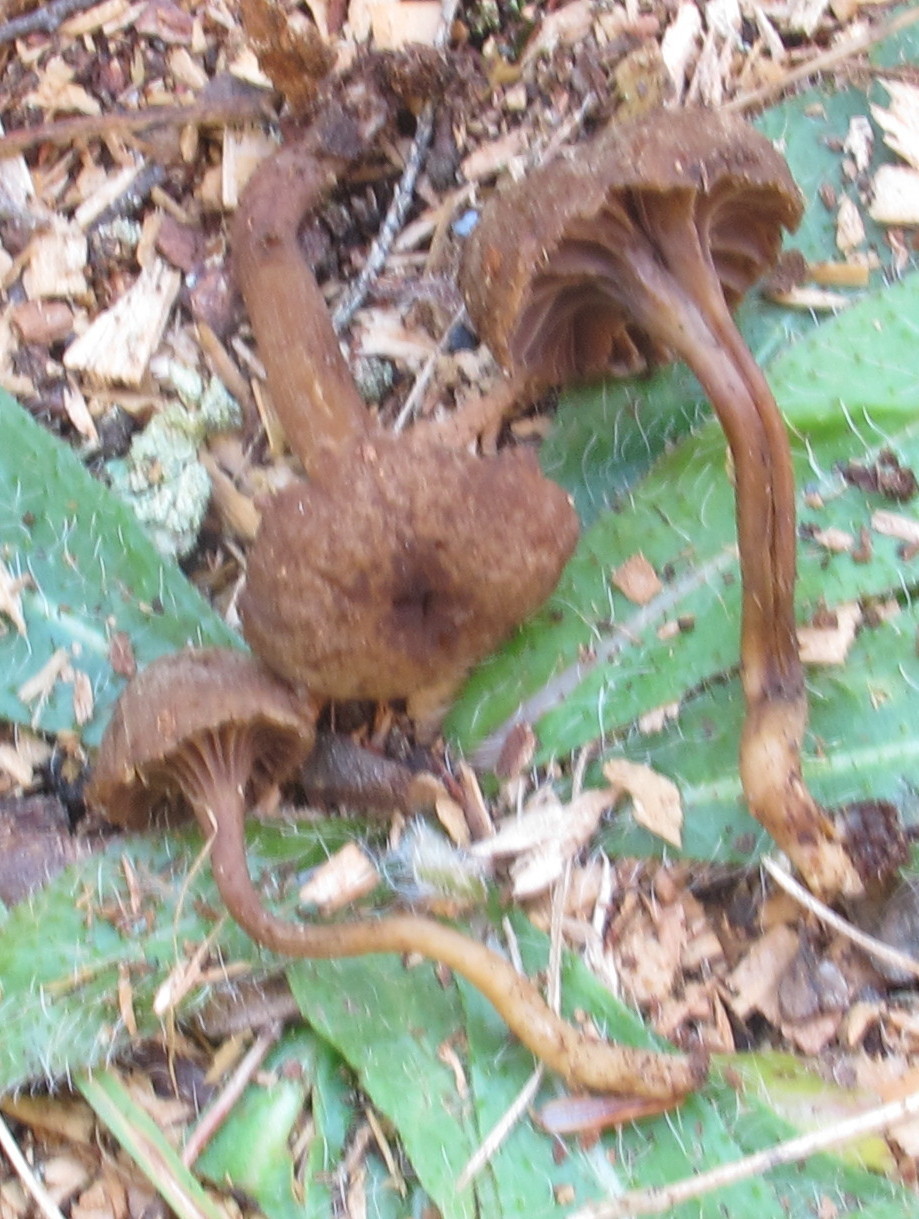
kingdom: Fungi
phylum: Basidiomycota
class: Agaricomycetes
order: Agaricales
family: Clavariaceae
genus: Hodophilus
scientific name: Hodophilus hymenocephalus
